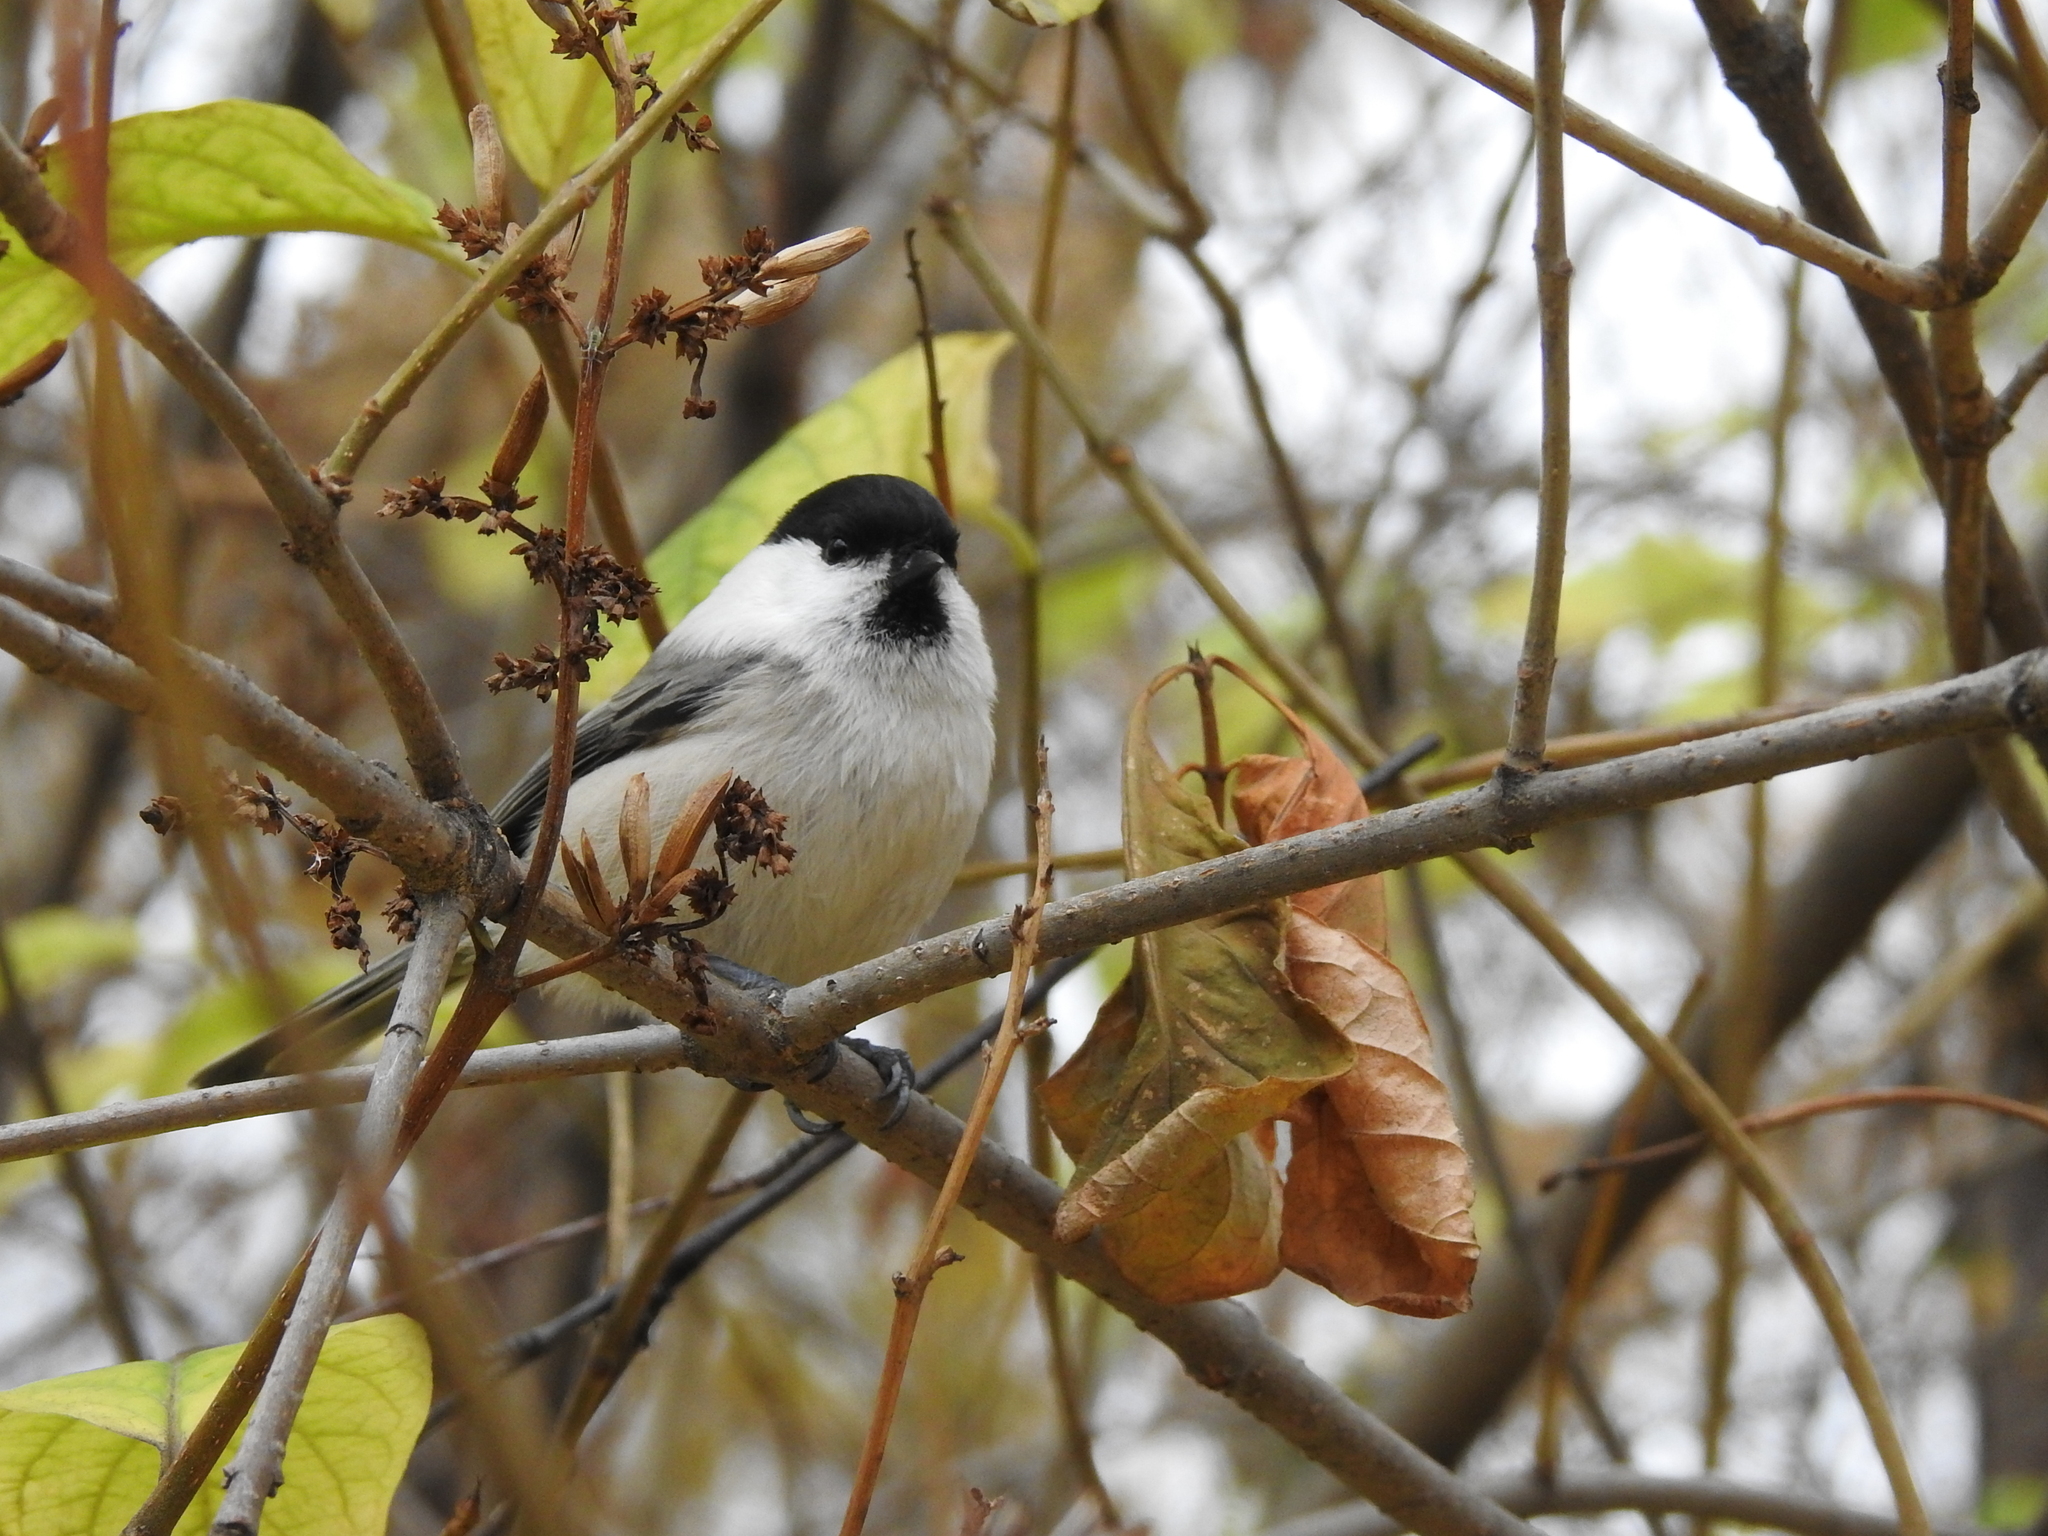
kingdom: Animalia
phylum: Chordata
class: Aves
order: Passeriformes
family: Paridae
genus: Poecile
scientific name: Poecile montanus
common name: Willow tit
